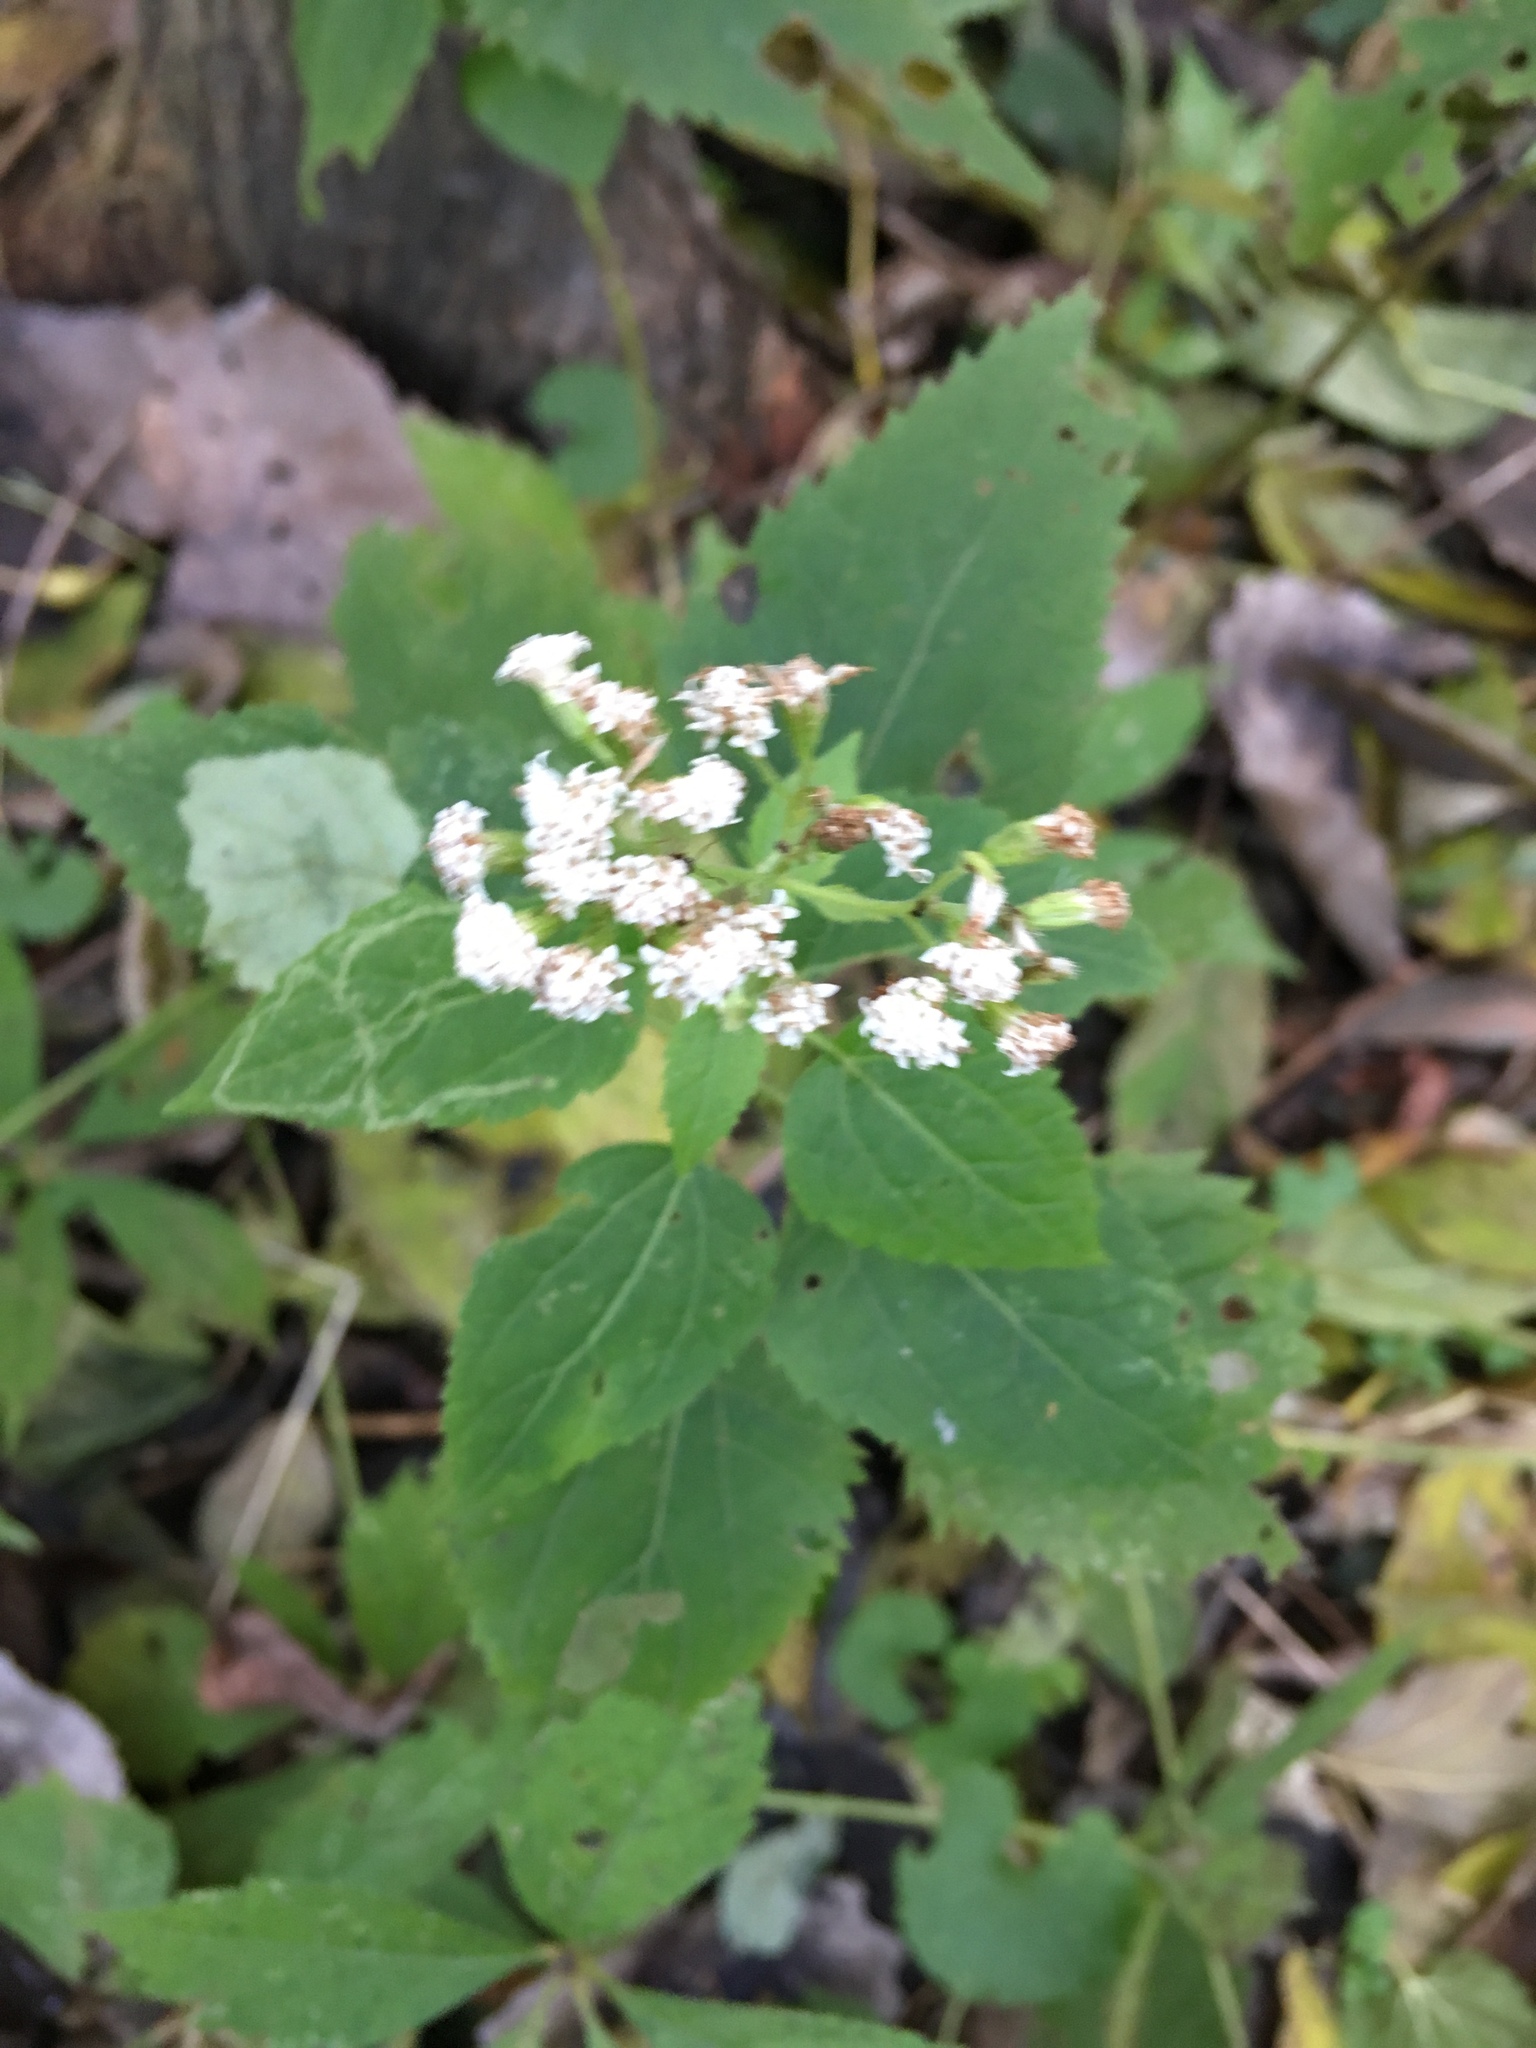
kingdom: Plantae
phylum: Tracheophyta
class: Magnoliopsida
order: Asterales
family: Asteraceae
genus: Ageratina
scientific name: Ageratina altissima
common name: White snakeroot
